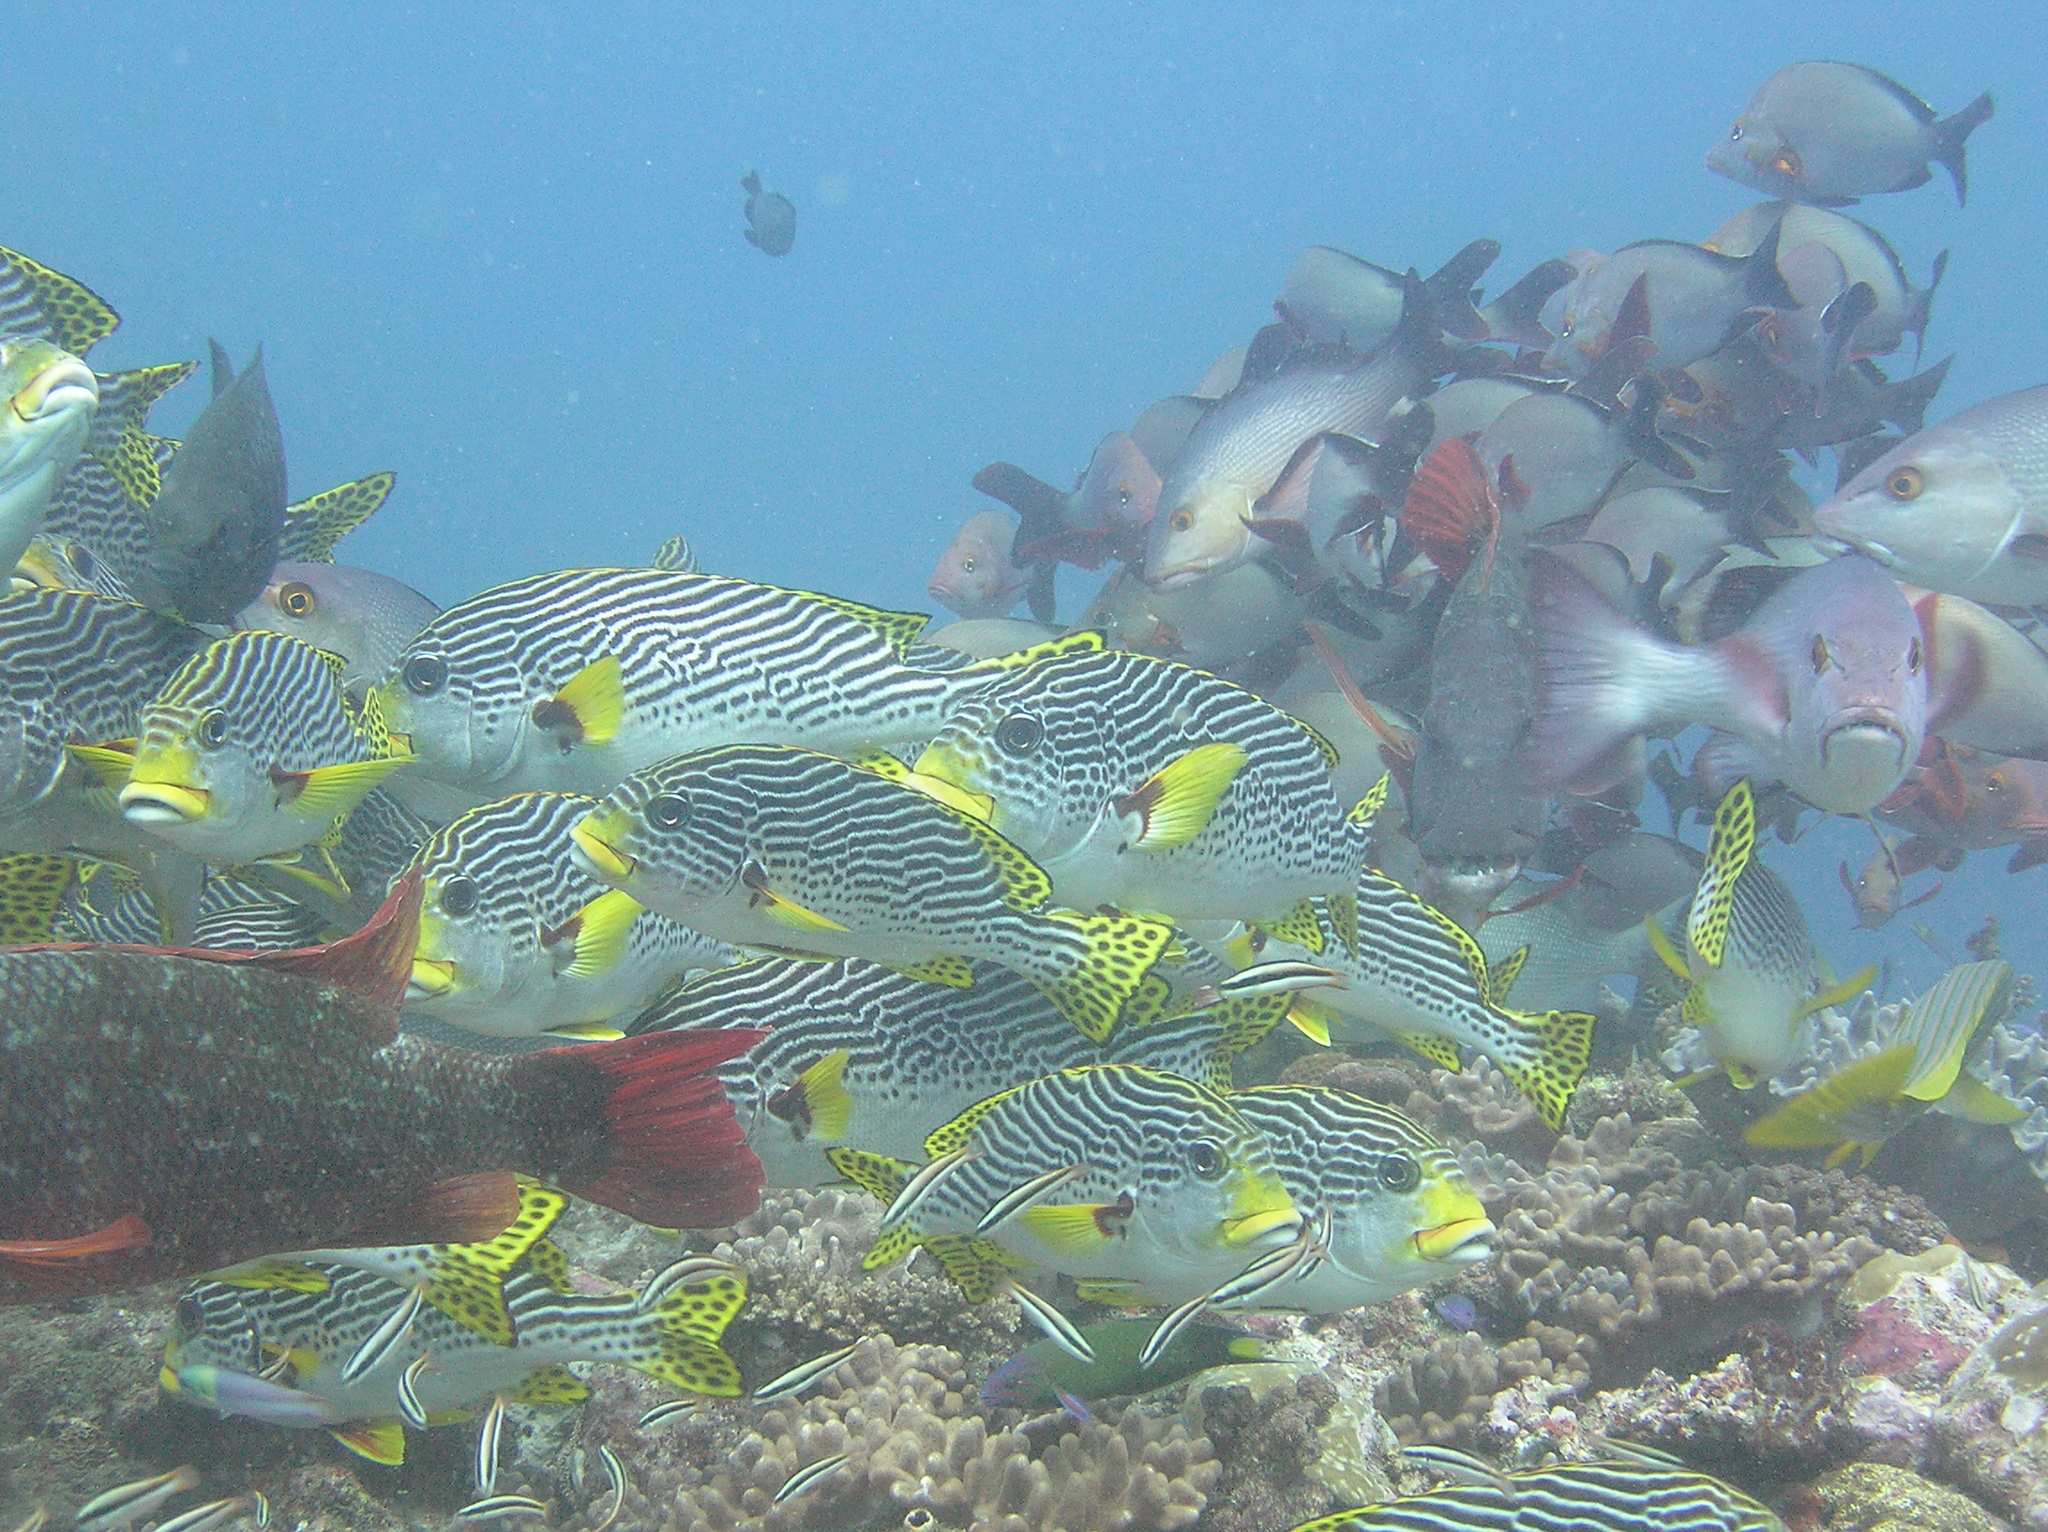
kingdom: Animalia
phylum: Chordata
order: Perciformes
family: Lutjanidae
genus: Lutjanus
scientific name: Lutjanus bohar
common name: Red bass
